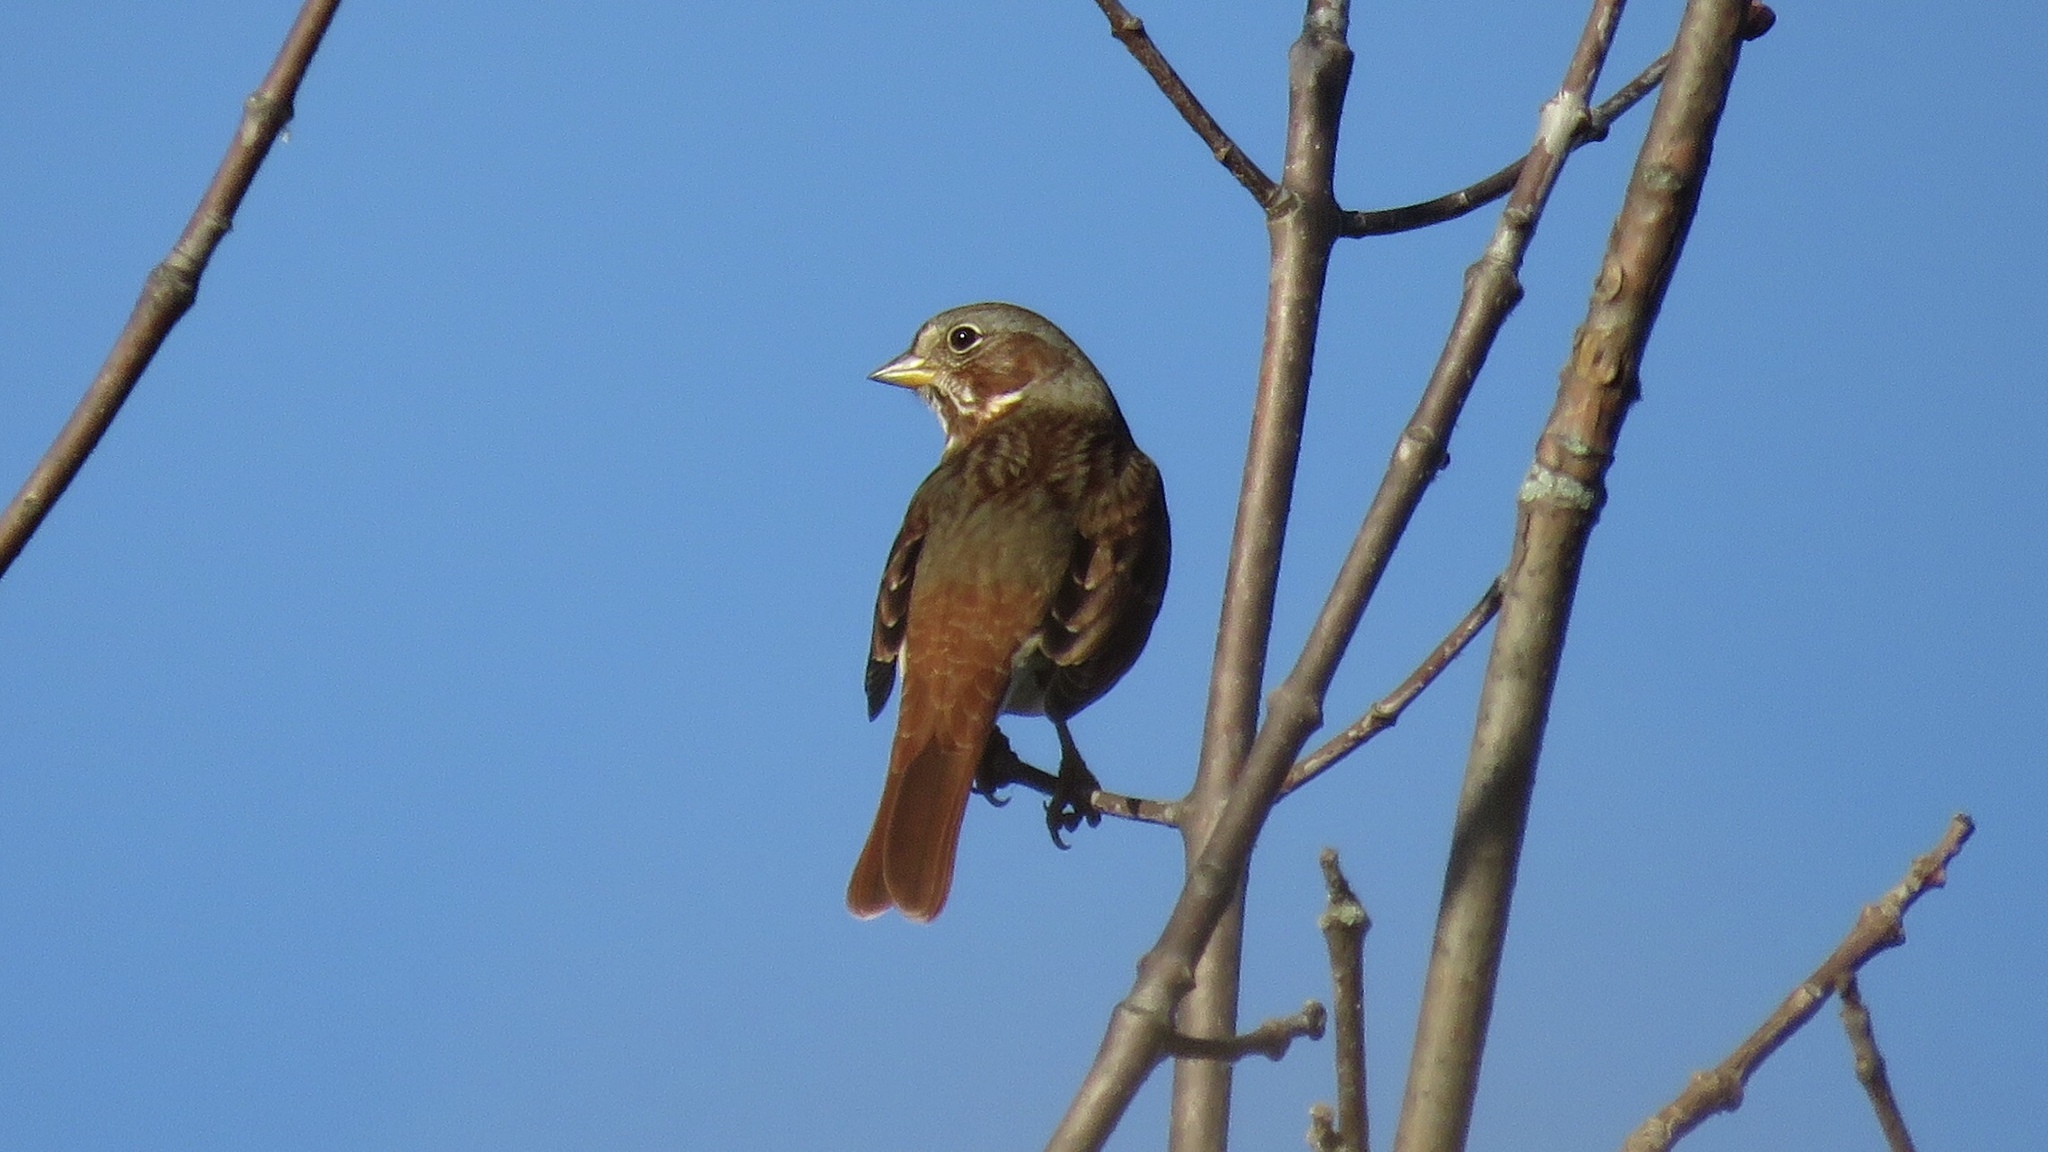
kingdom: Animalia
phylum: Chordata
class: Aves
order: Passeriformes
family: Passerellidae
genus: Passerella
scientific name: Passerella iliaca
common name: Fox sparrow
